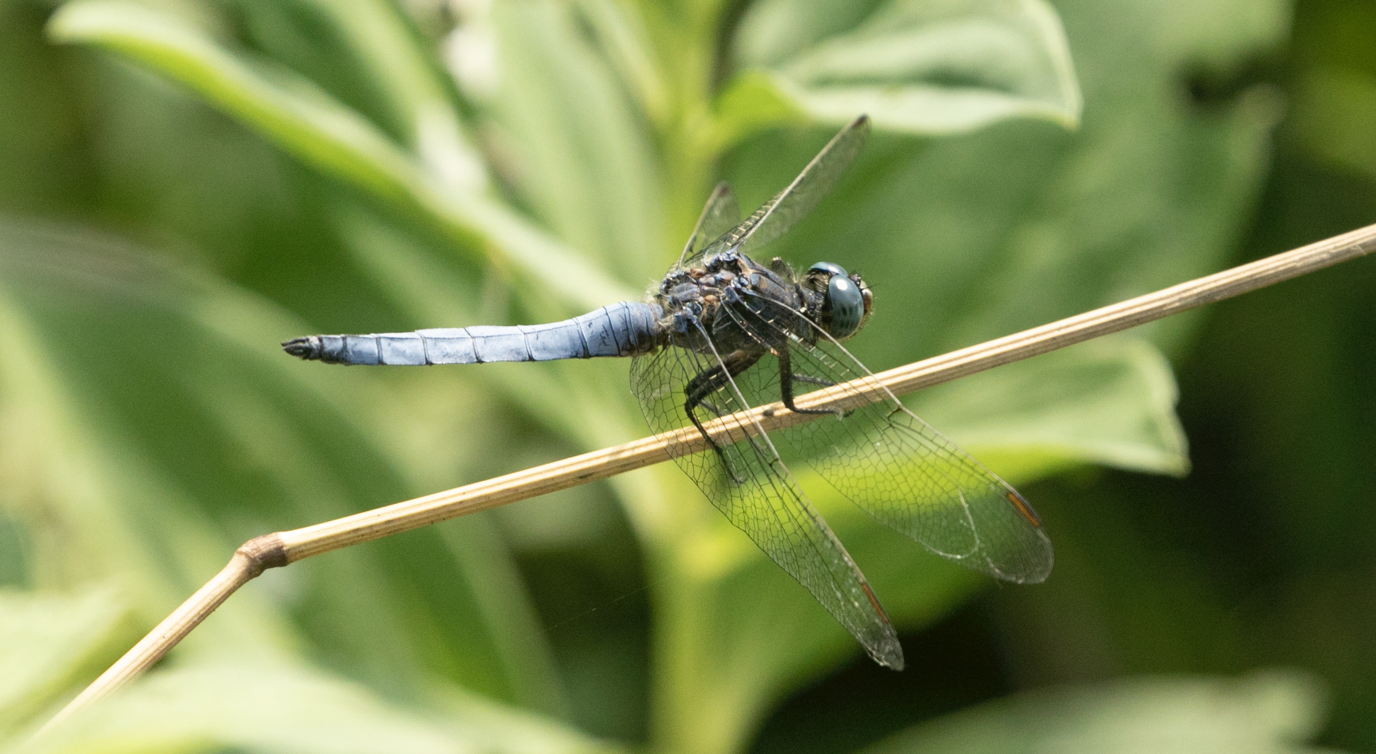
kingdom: Animalia
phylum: Arthropoda
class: Insecta
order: Odonata
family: Libellulidae
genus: Orthetrum
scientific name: Orthetrum coerulescens
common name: Keeled skimmer
